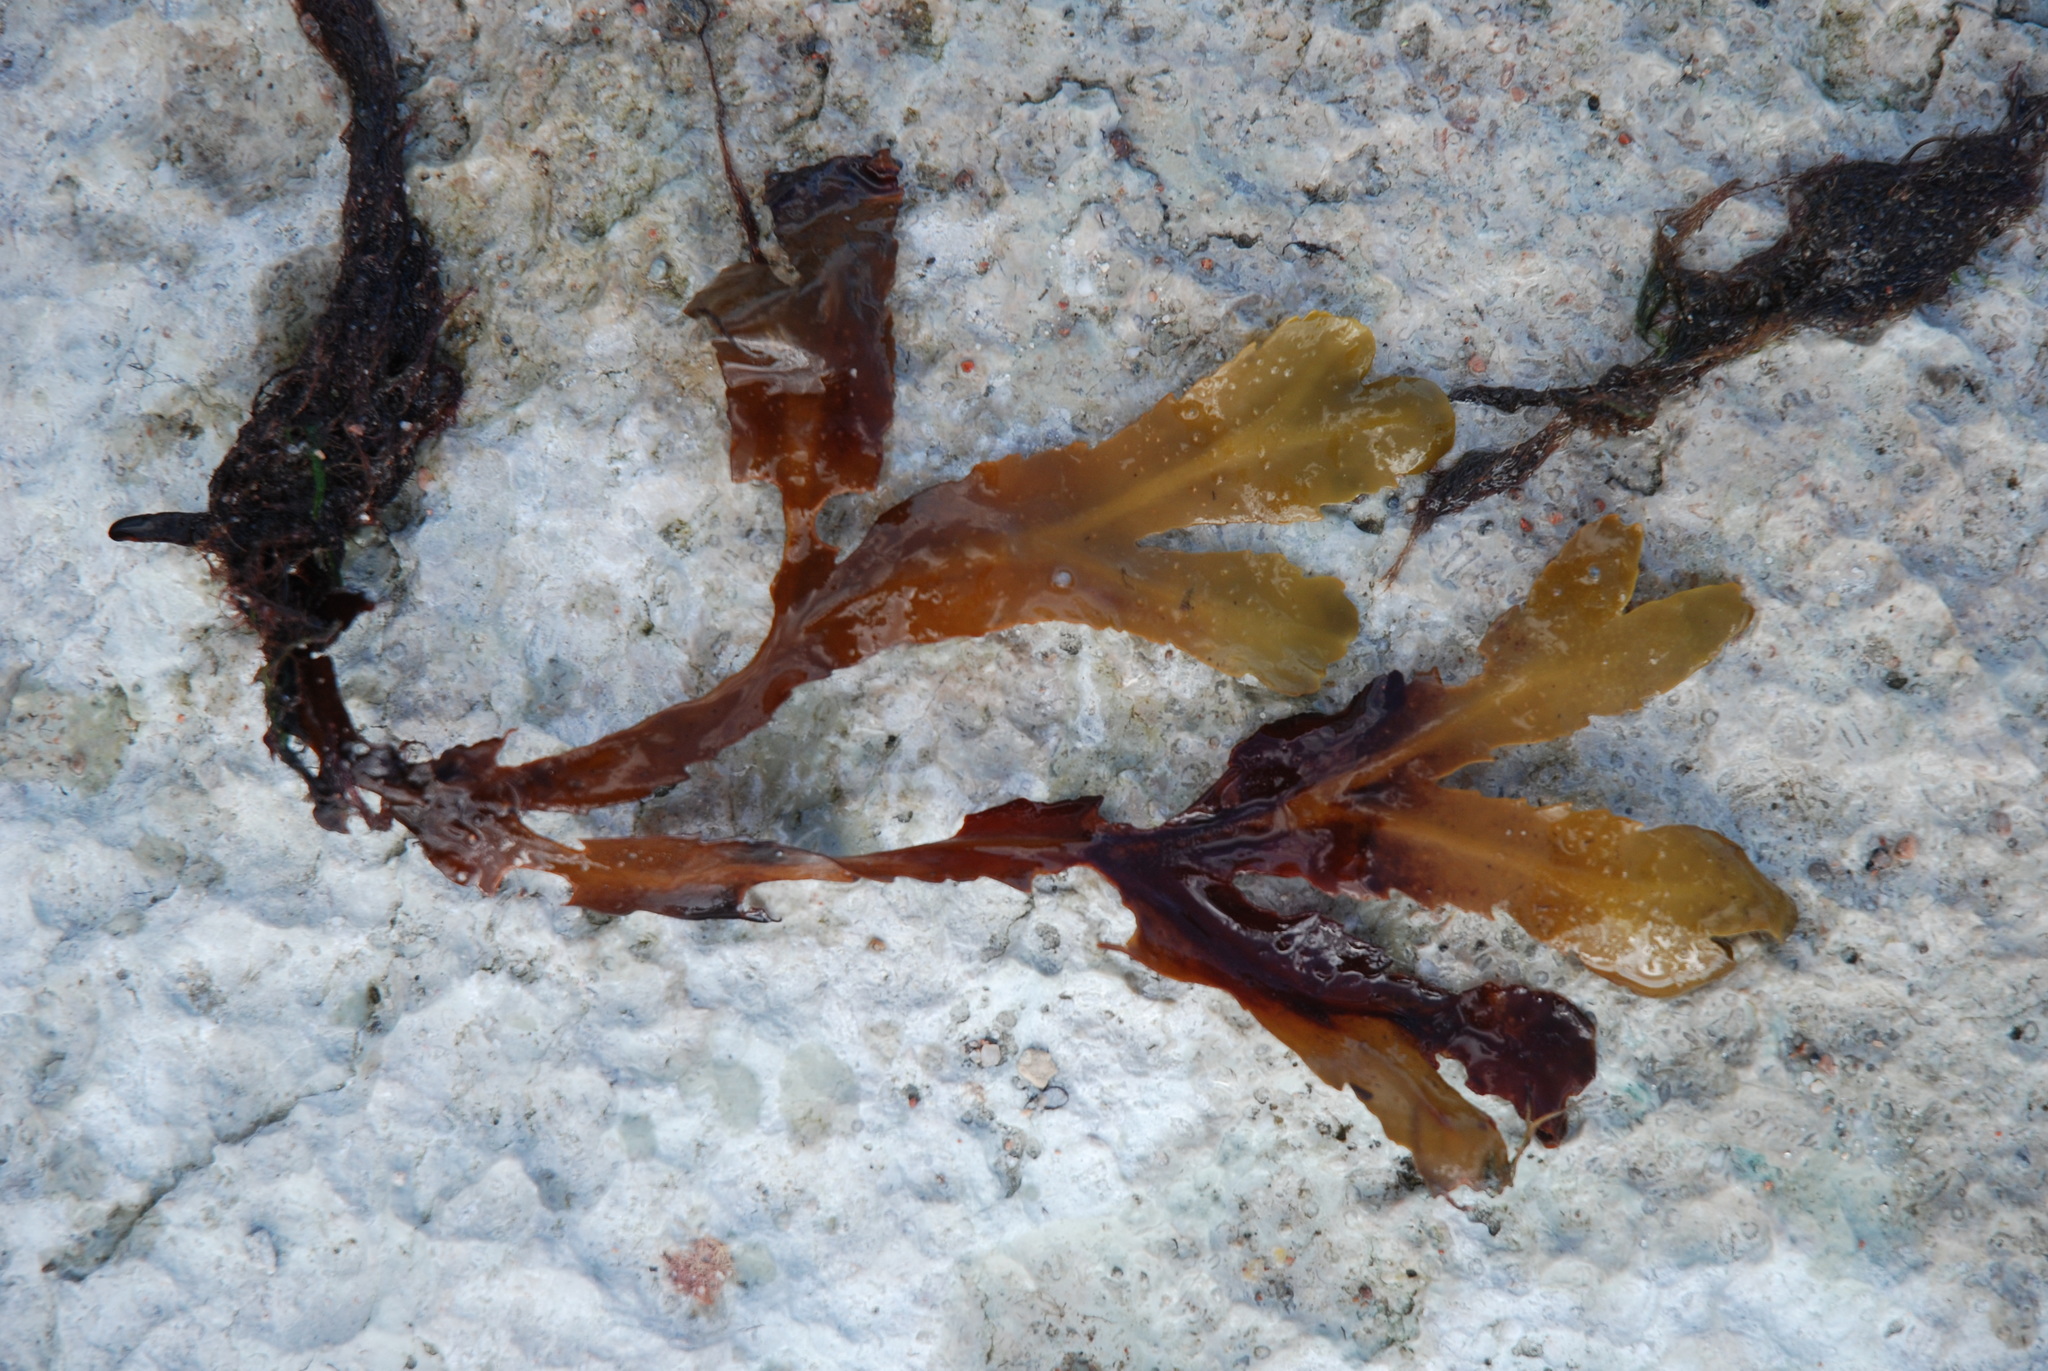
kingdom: Chromista
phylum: Ochrophyta
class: Phaeophyceae
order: Fucales
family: Fucaceae
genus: Fucus
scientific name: Fucus serratus
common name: Toothed wrack
